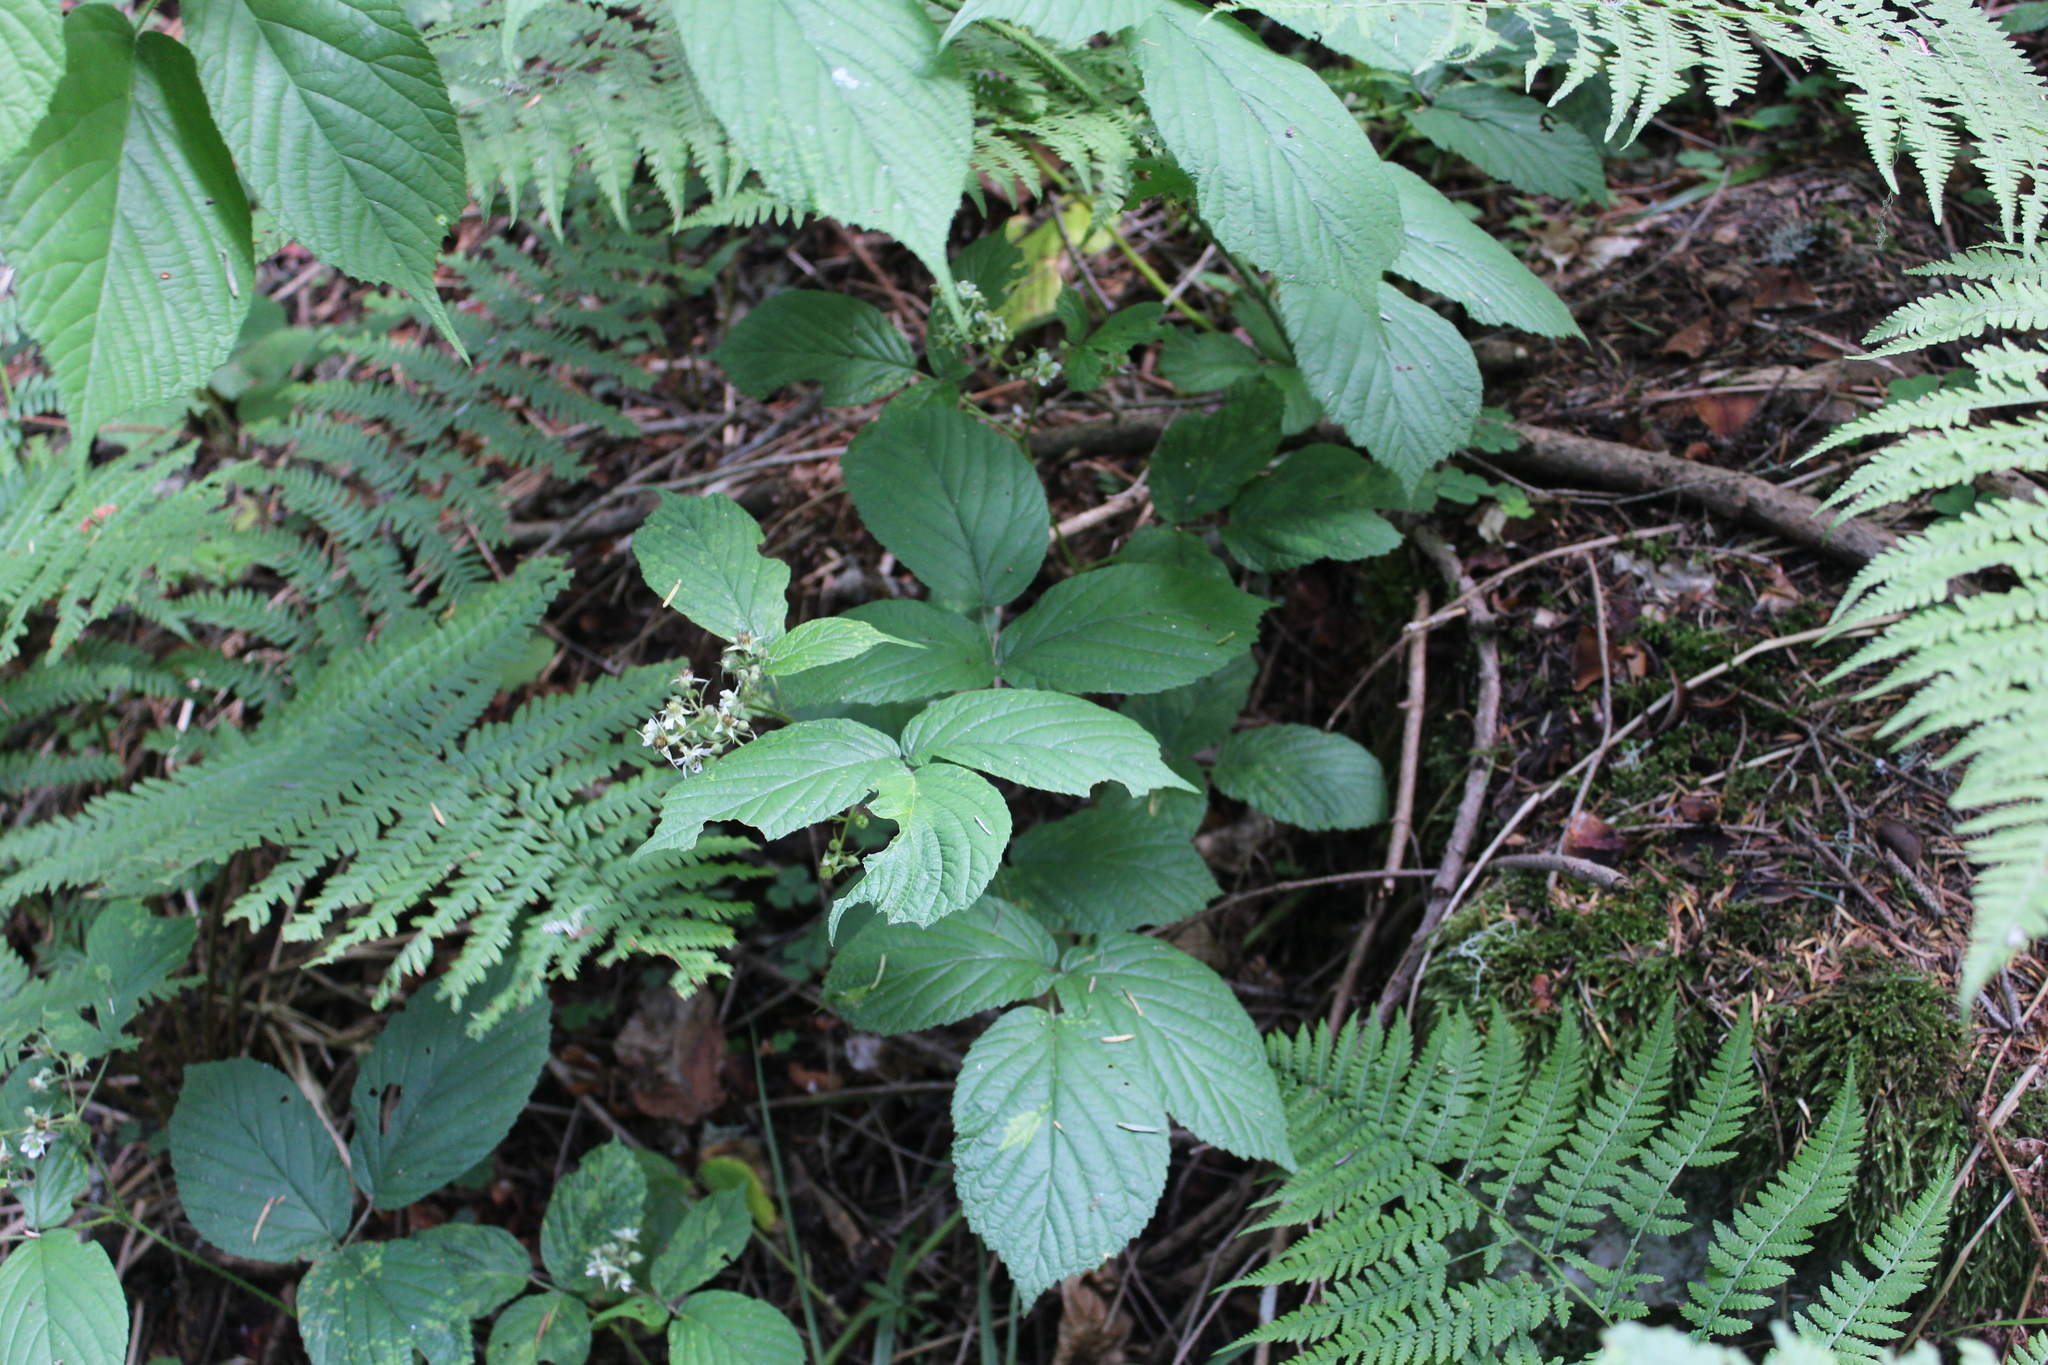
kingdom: Plantae
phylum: Tracheophyta
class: Magnoliopsida
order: Rosales
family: Rosaceae
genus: Rubus
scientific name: Rubus hirtus
